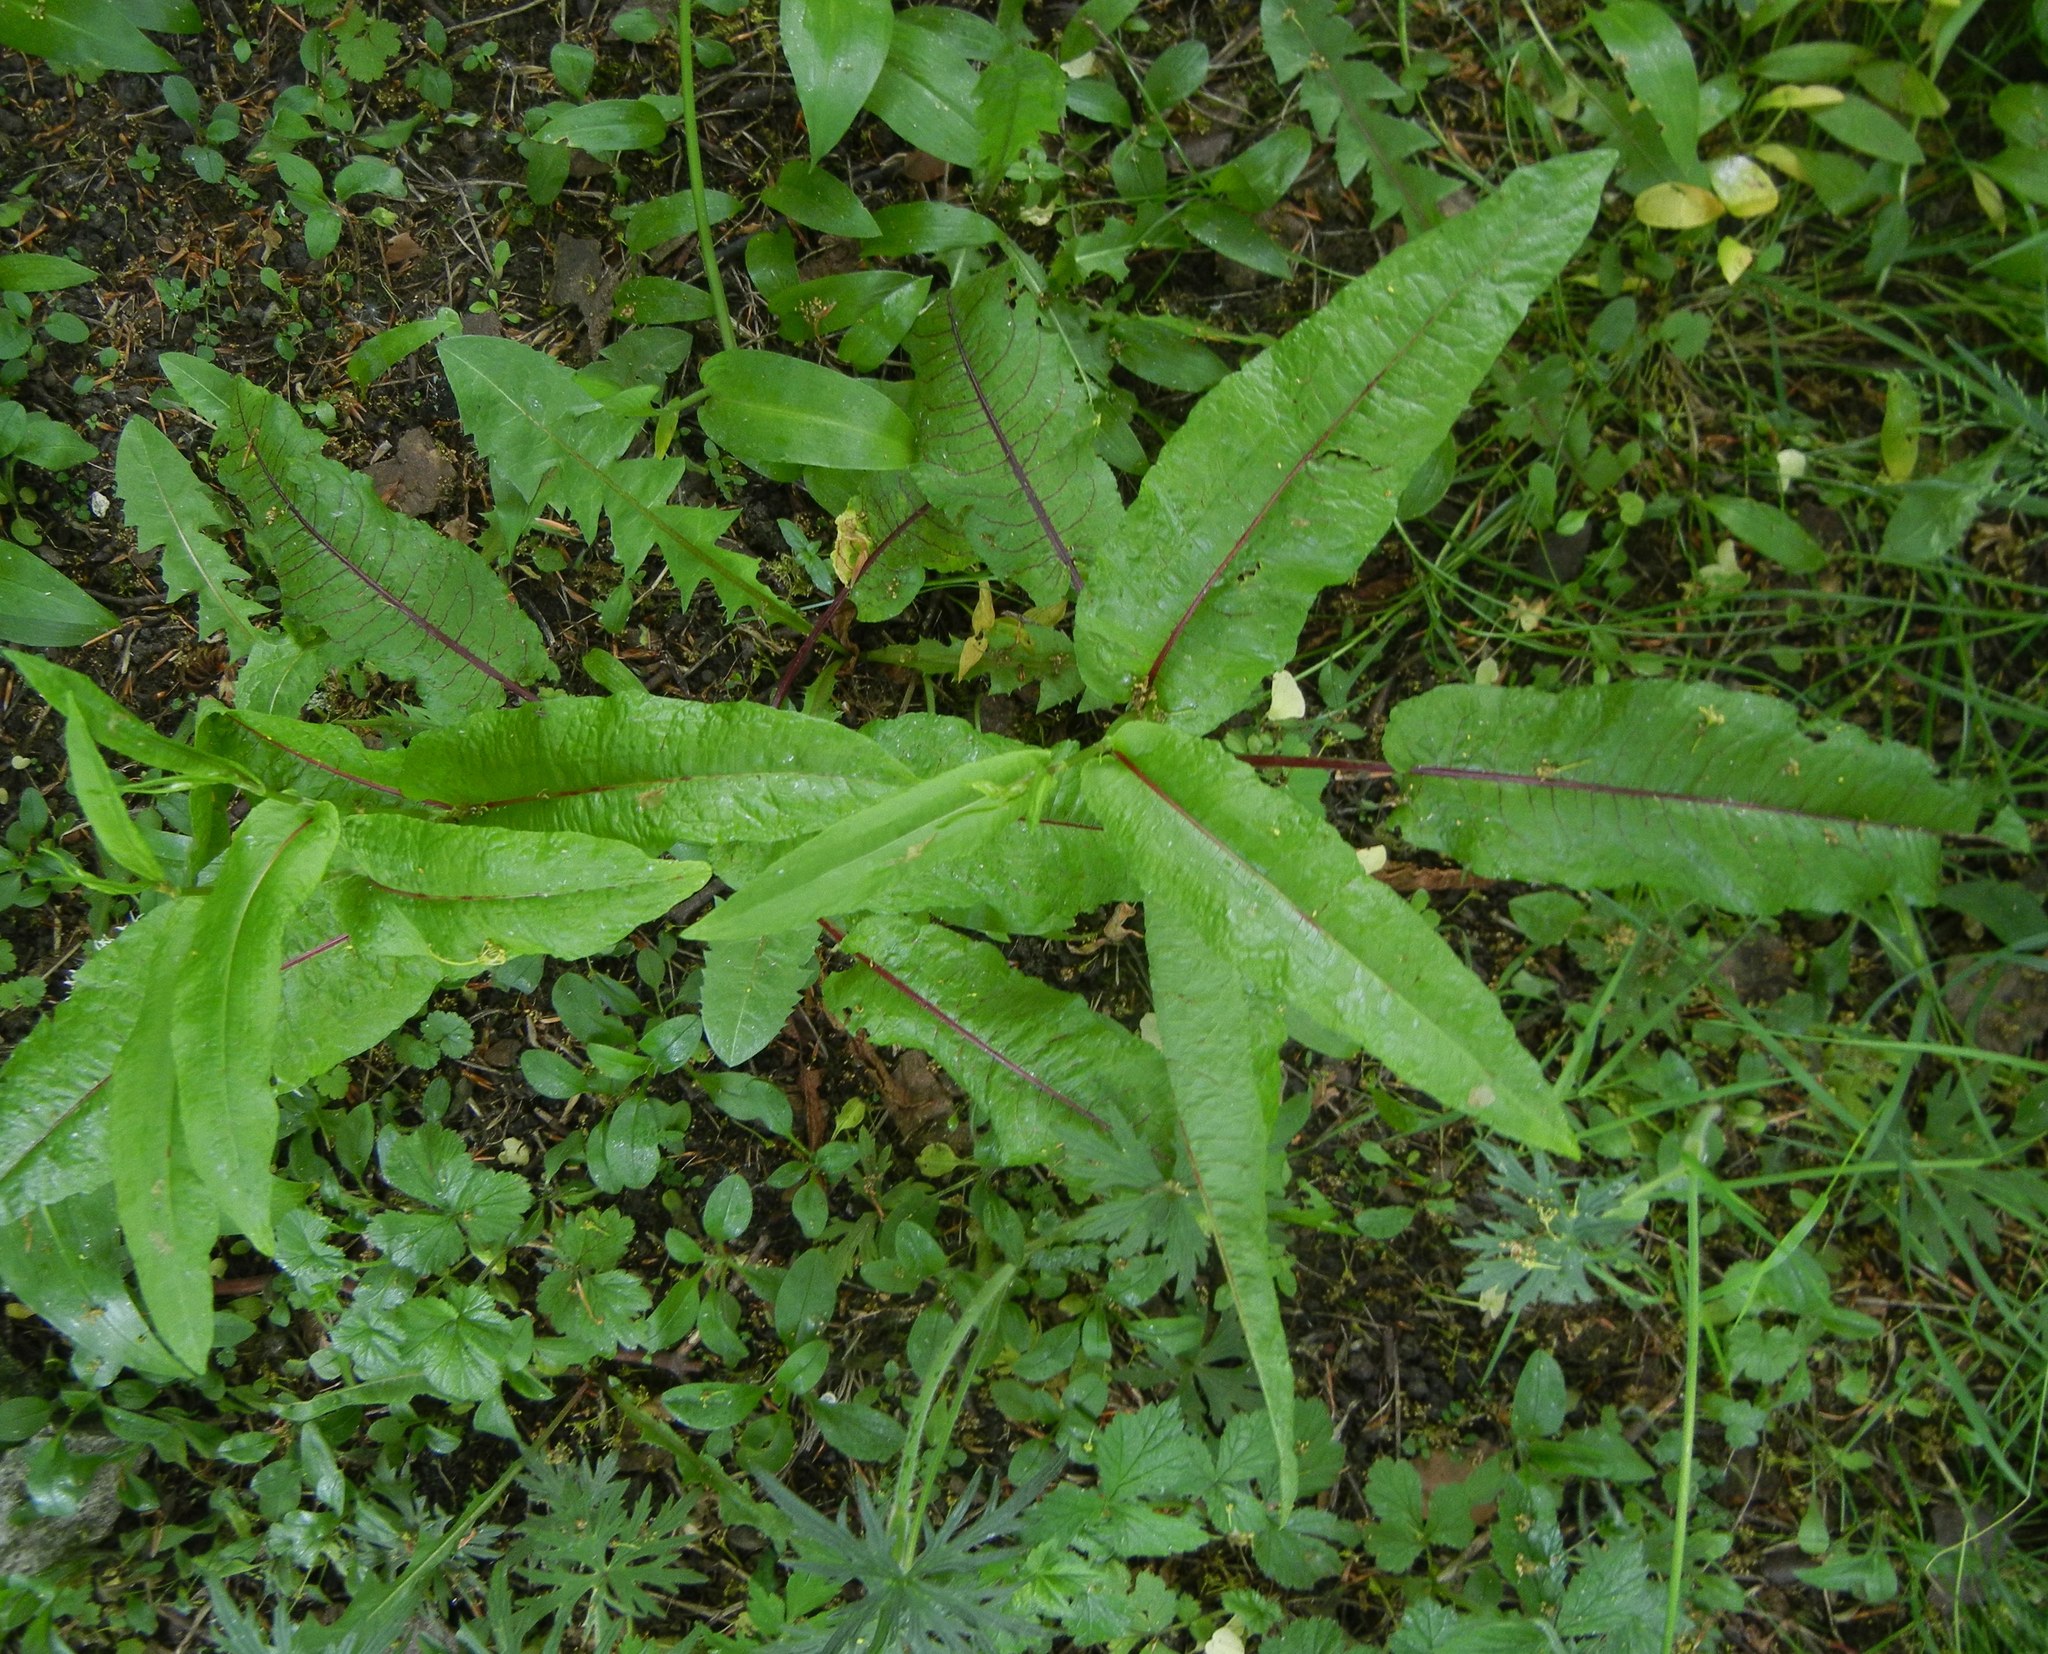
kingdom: Plantae
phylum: Tracheophyta
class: Magnoliopsida
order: Caryophyllales
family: Polygonaceae
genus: Rumex
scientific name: Rumex sanguineus
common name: Wood dock
